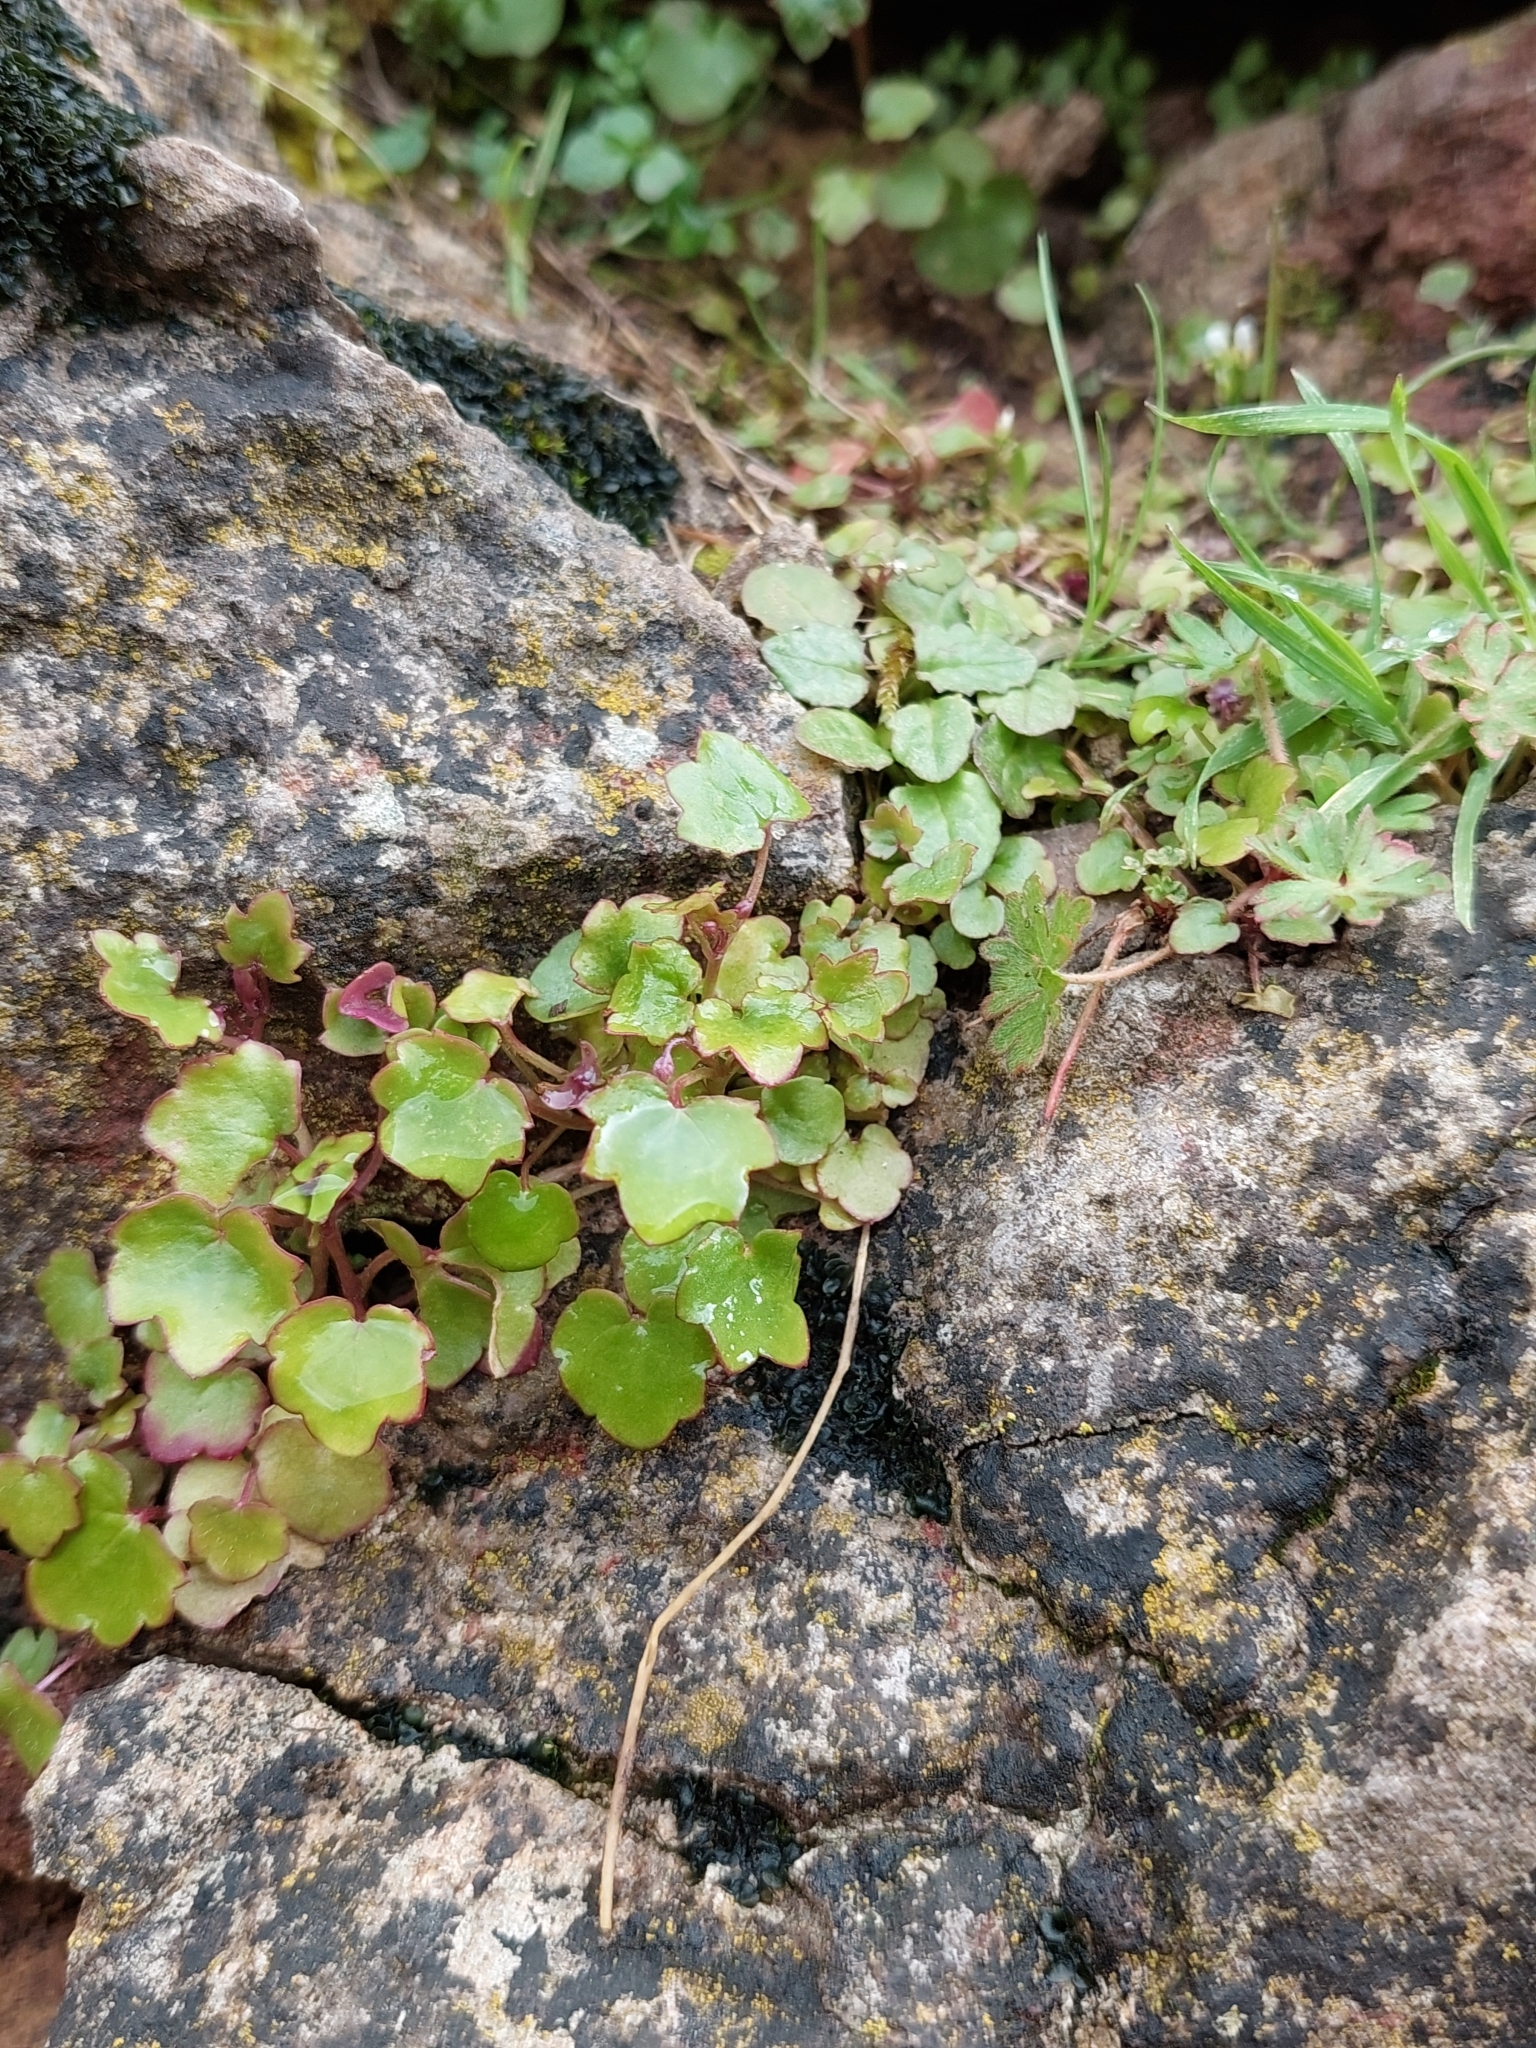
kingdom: Plantae
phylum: Tracheophyta
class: Magnoliopsida
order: Lamiales
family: Plantaginaceae
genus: Cymbalaria
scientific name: Cymbalaria muralis
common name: Ivy-leaved toadflax
